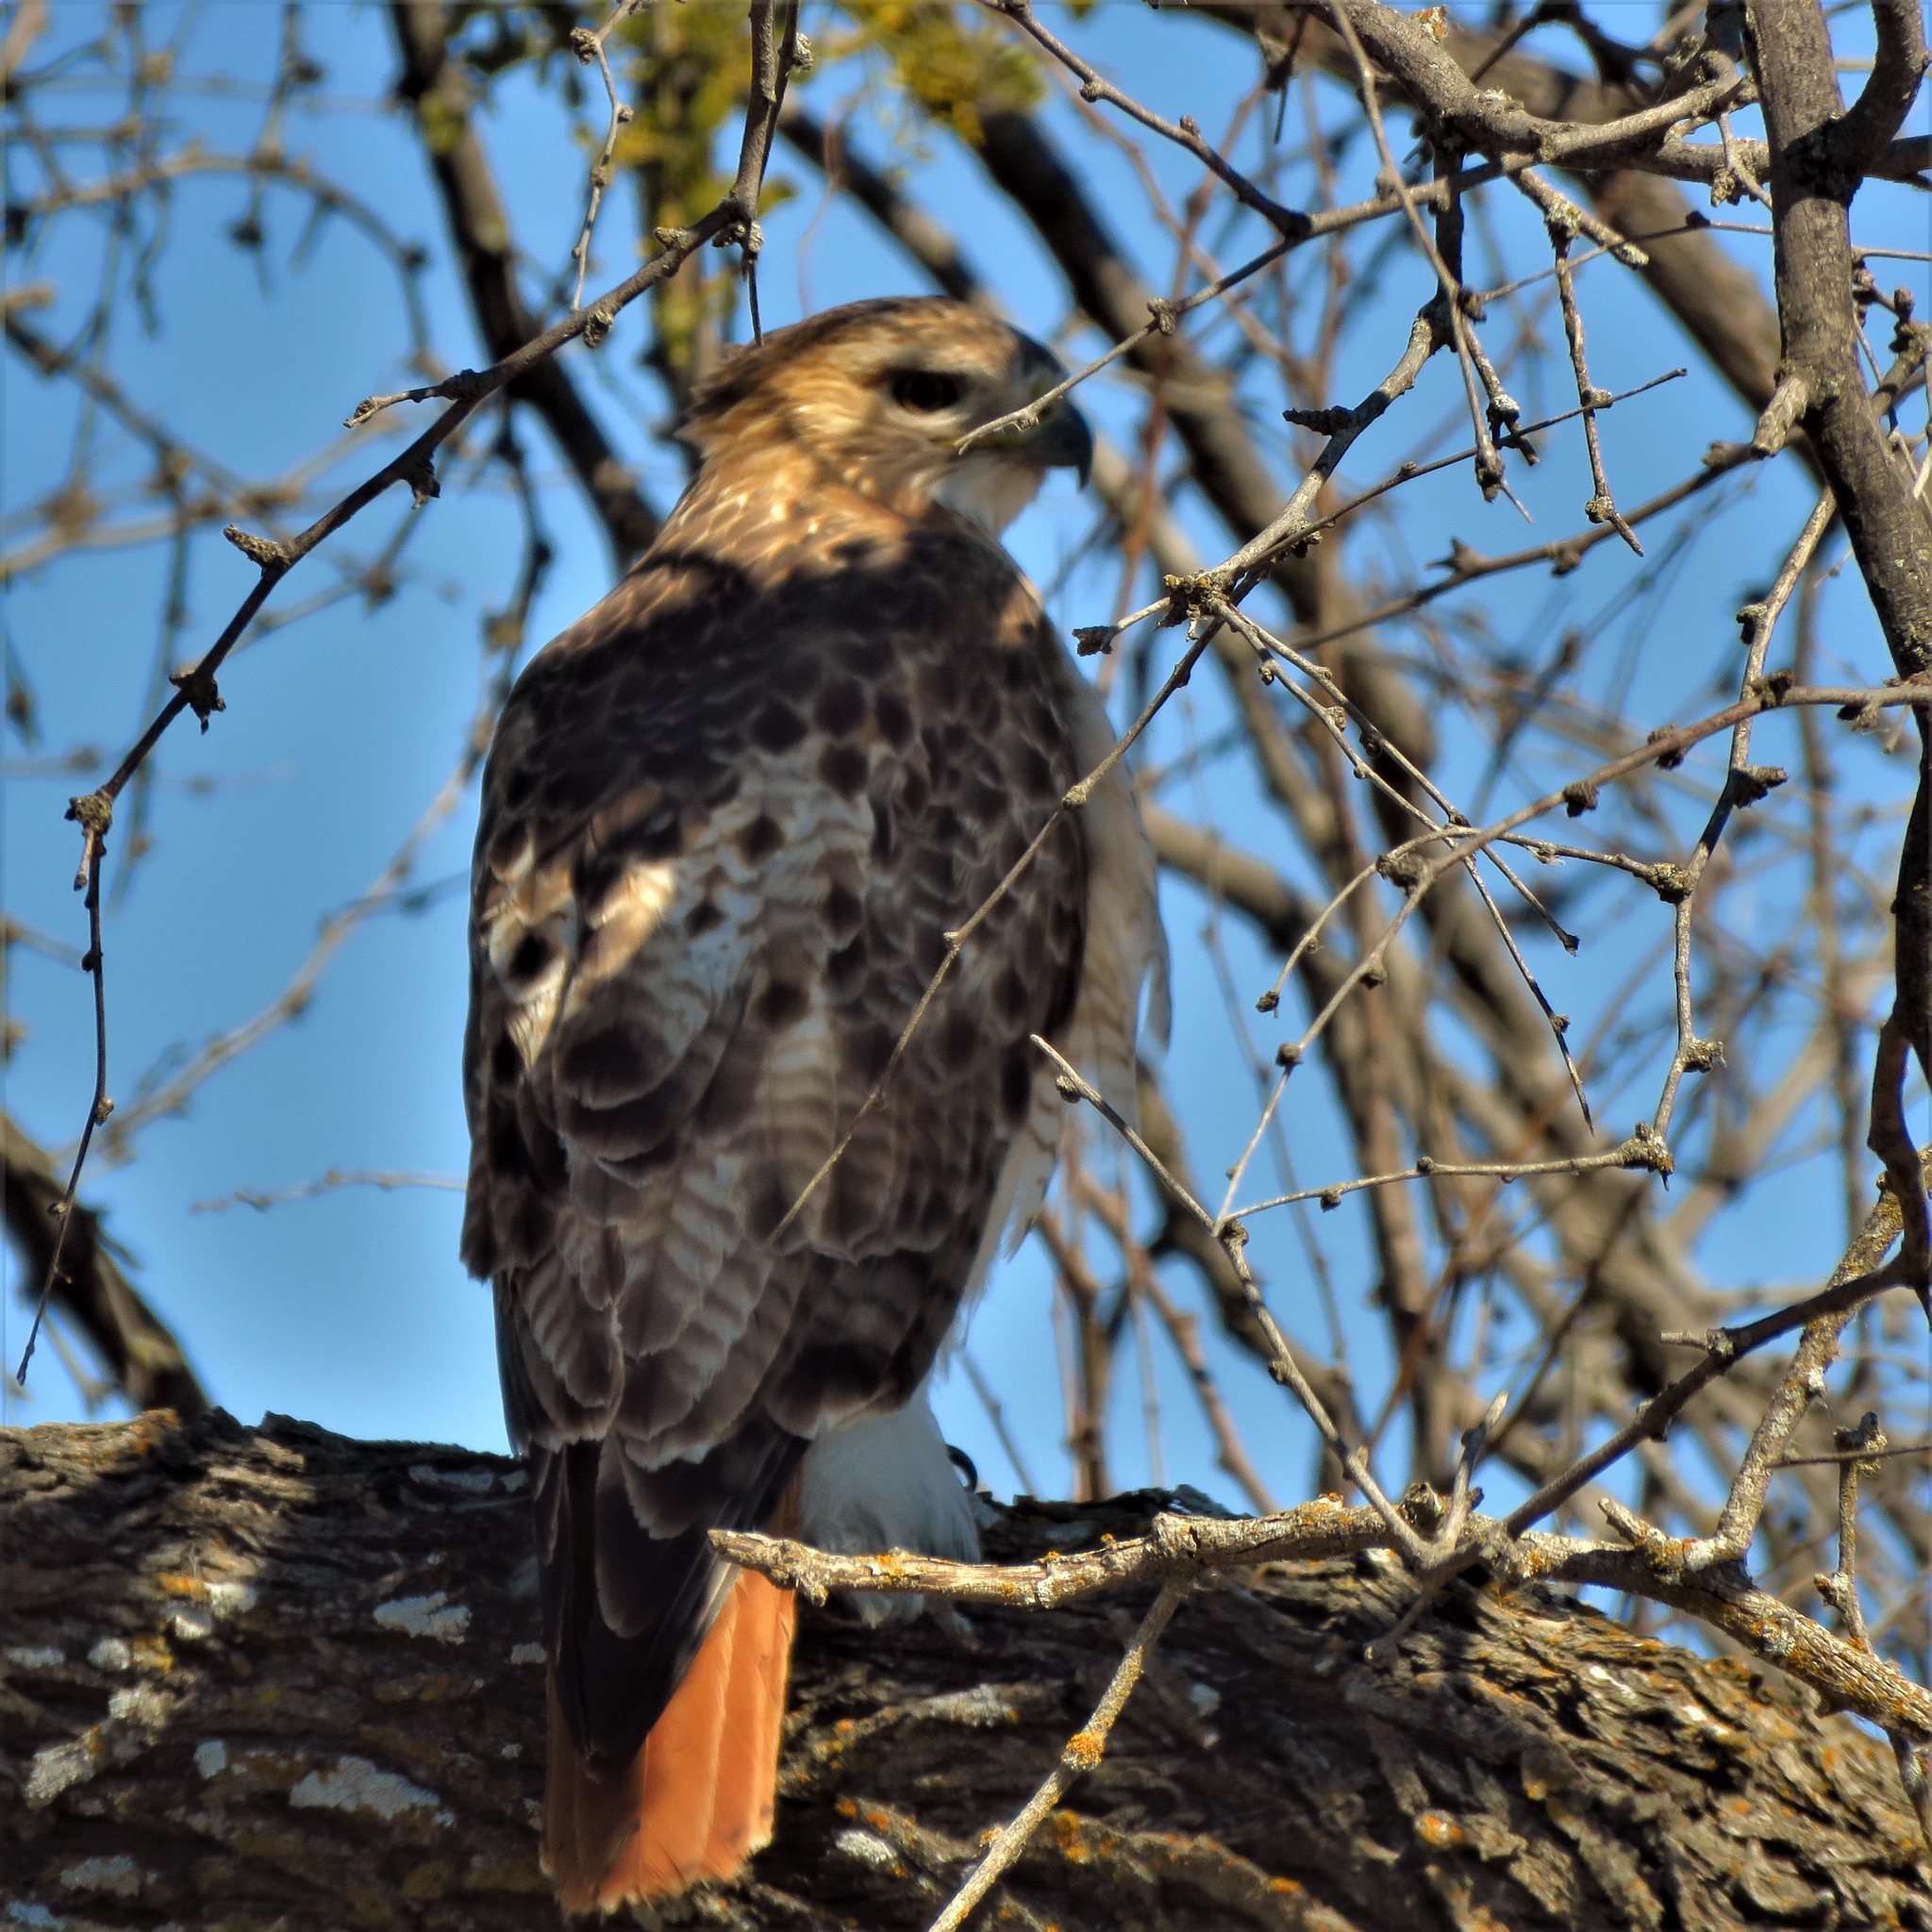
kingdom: Animalia
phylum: Chordata
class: Aves
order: Accipitriformes
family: Accipitridae
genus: Buteo
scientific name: Buteo jamaicensis
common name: Red-tailed hawk
